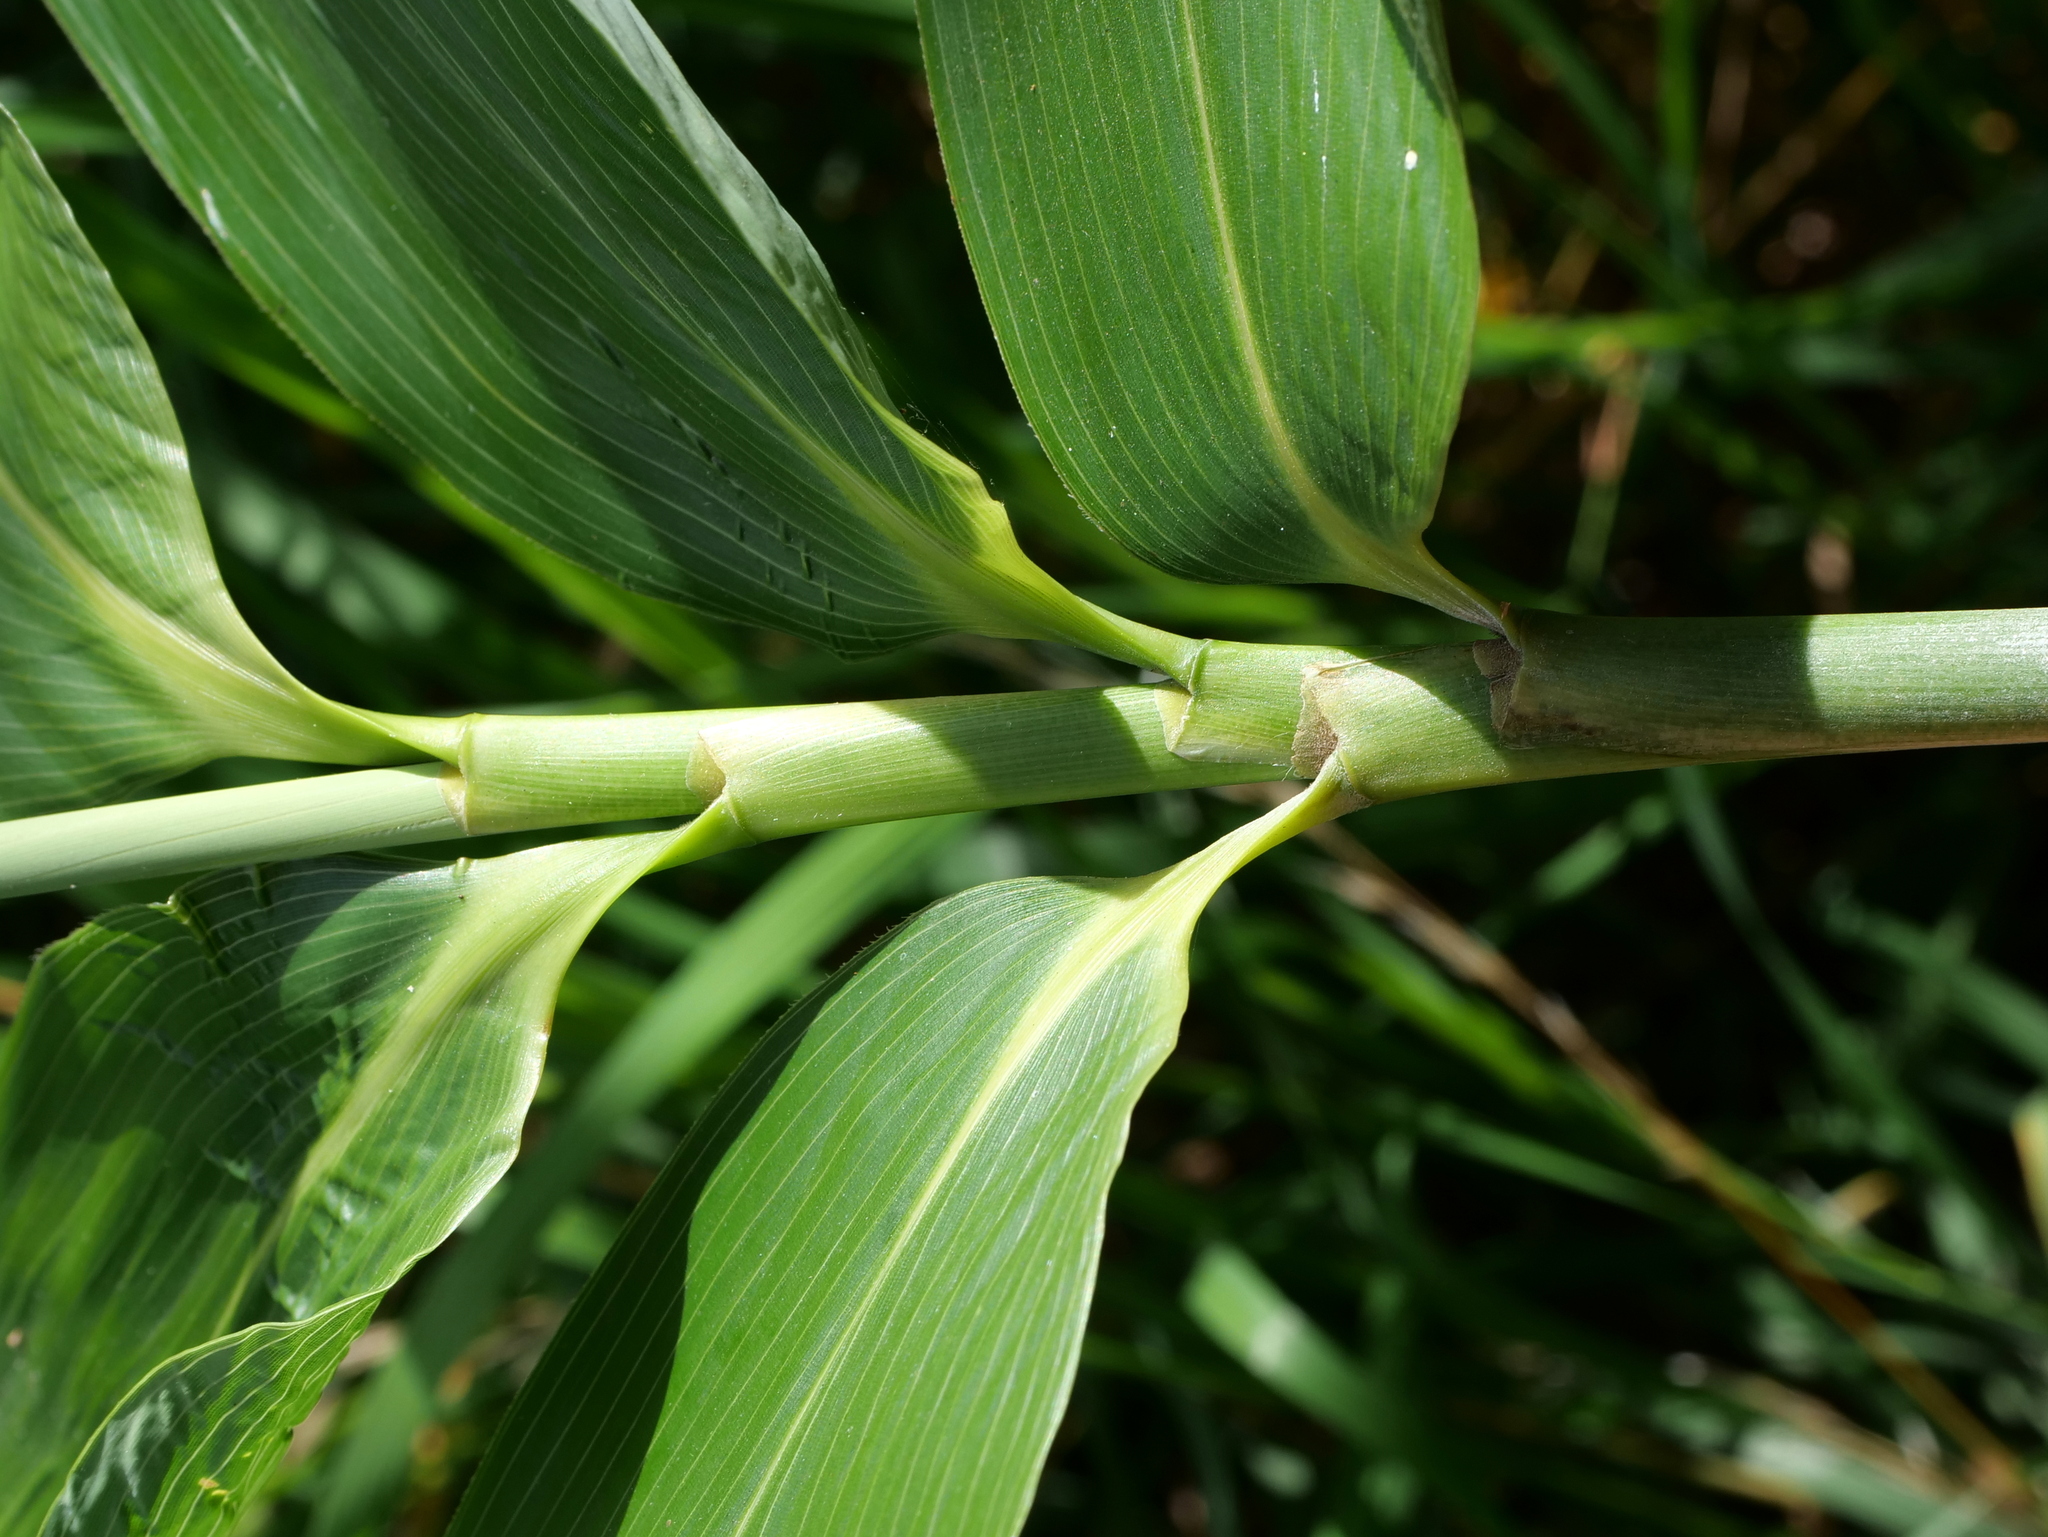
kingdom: Plantae
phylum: Tracheophyta
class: Liliopsida
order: Poales
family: Poaceae
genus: Sasa
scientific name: Sasa palmata
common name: Broad-leaved bamboo
